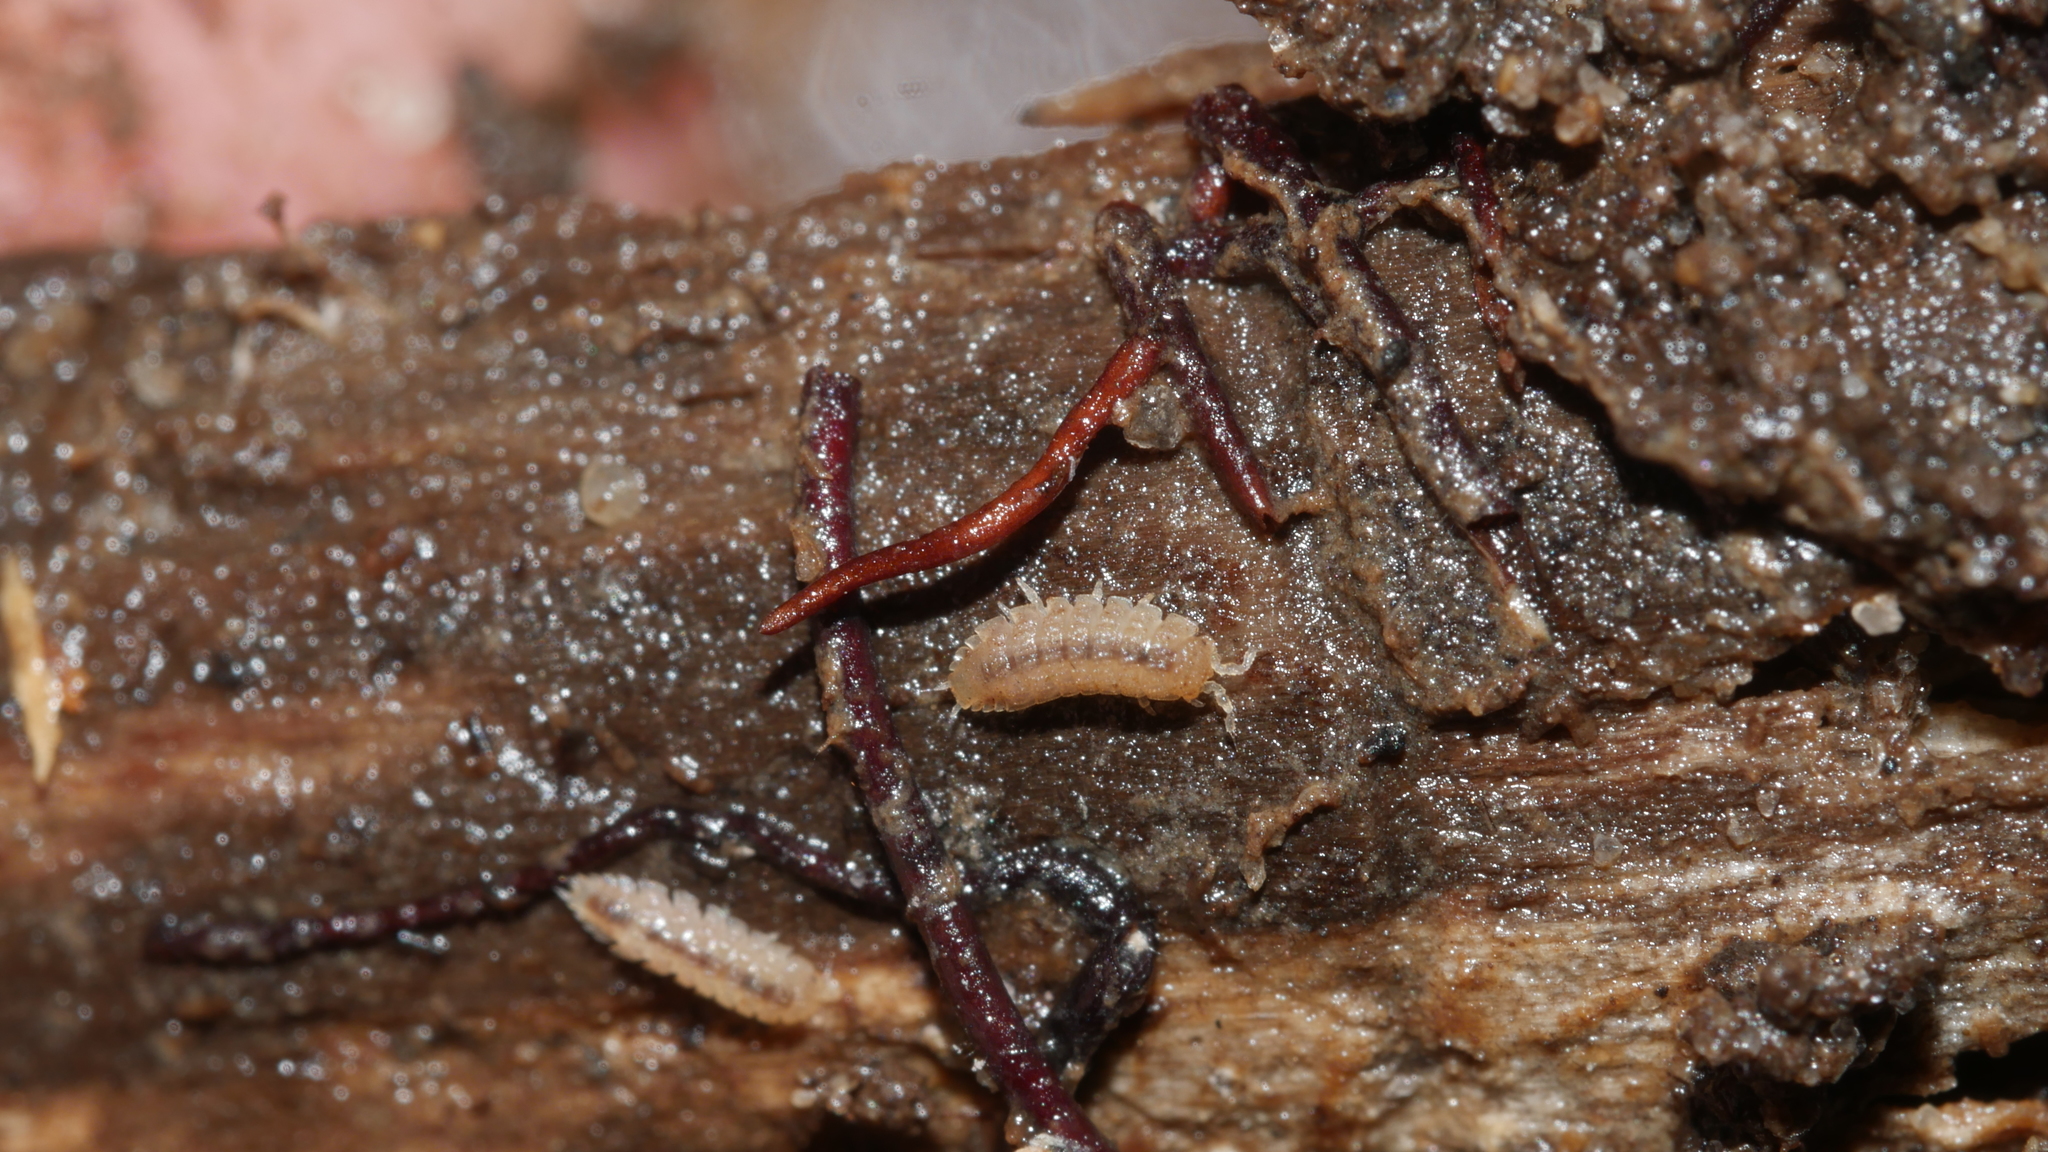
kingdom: Animalia
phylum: Arthropoda
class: Malacostraca
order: Isopoda
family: Trichoniscidae
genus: Haplophthalmus
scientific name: Haplophthalmus danicus
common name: Pillbug
